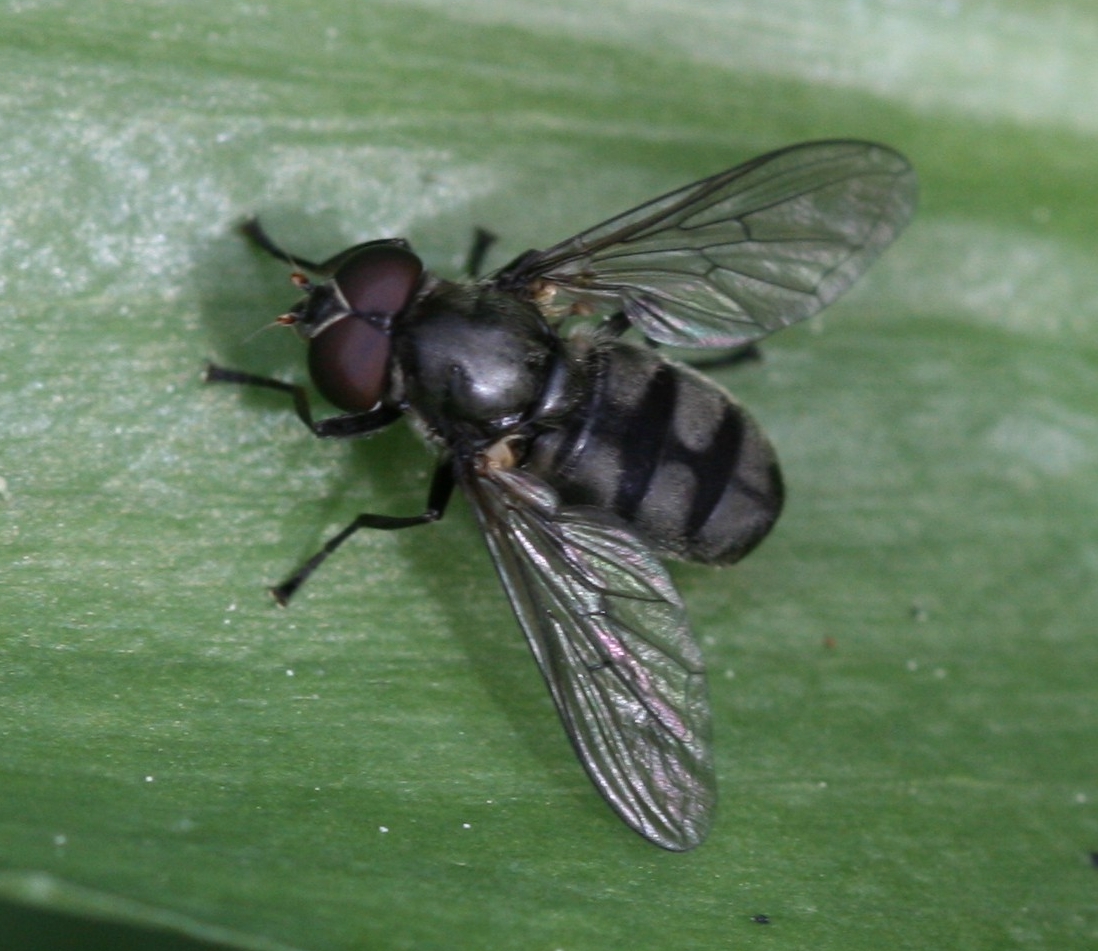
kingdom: Animalia
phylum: Arthropoda
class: Insecta
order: Diptera
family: Syrphidae
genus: Portevinia
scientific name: Portevinia maculata
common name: Ramson's hoverfly
